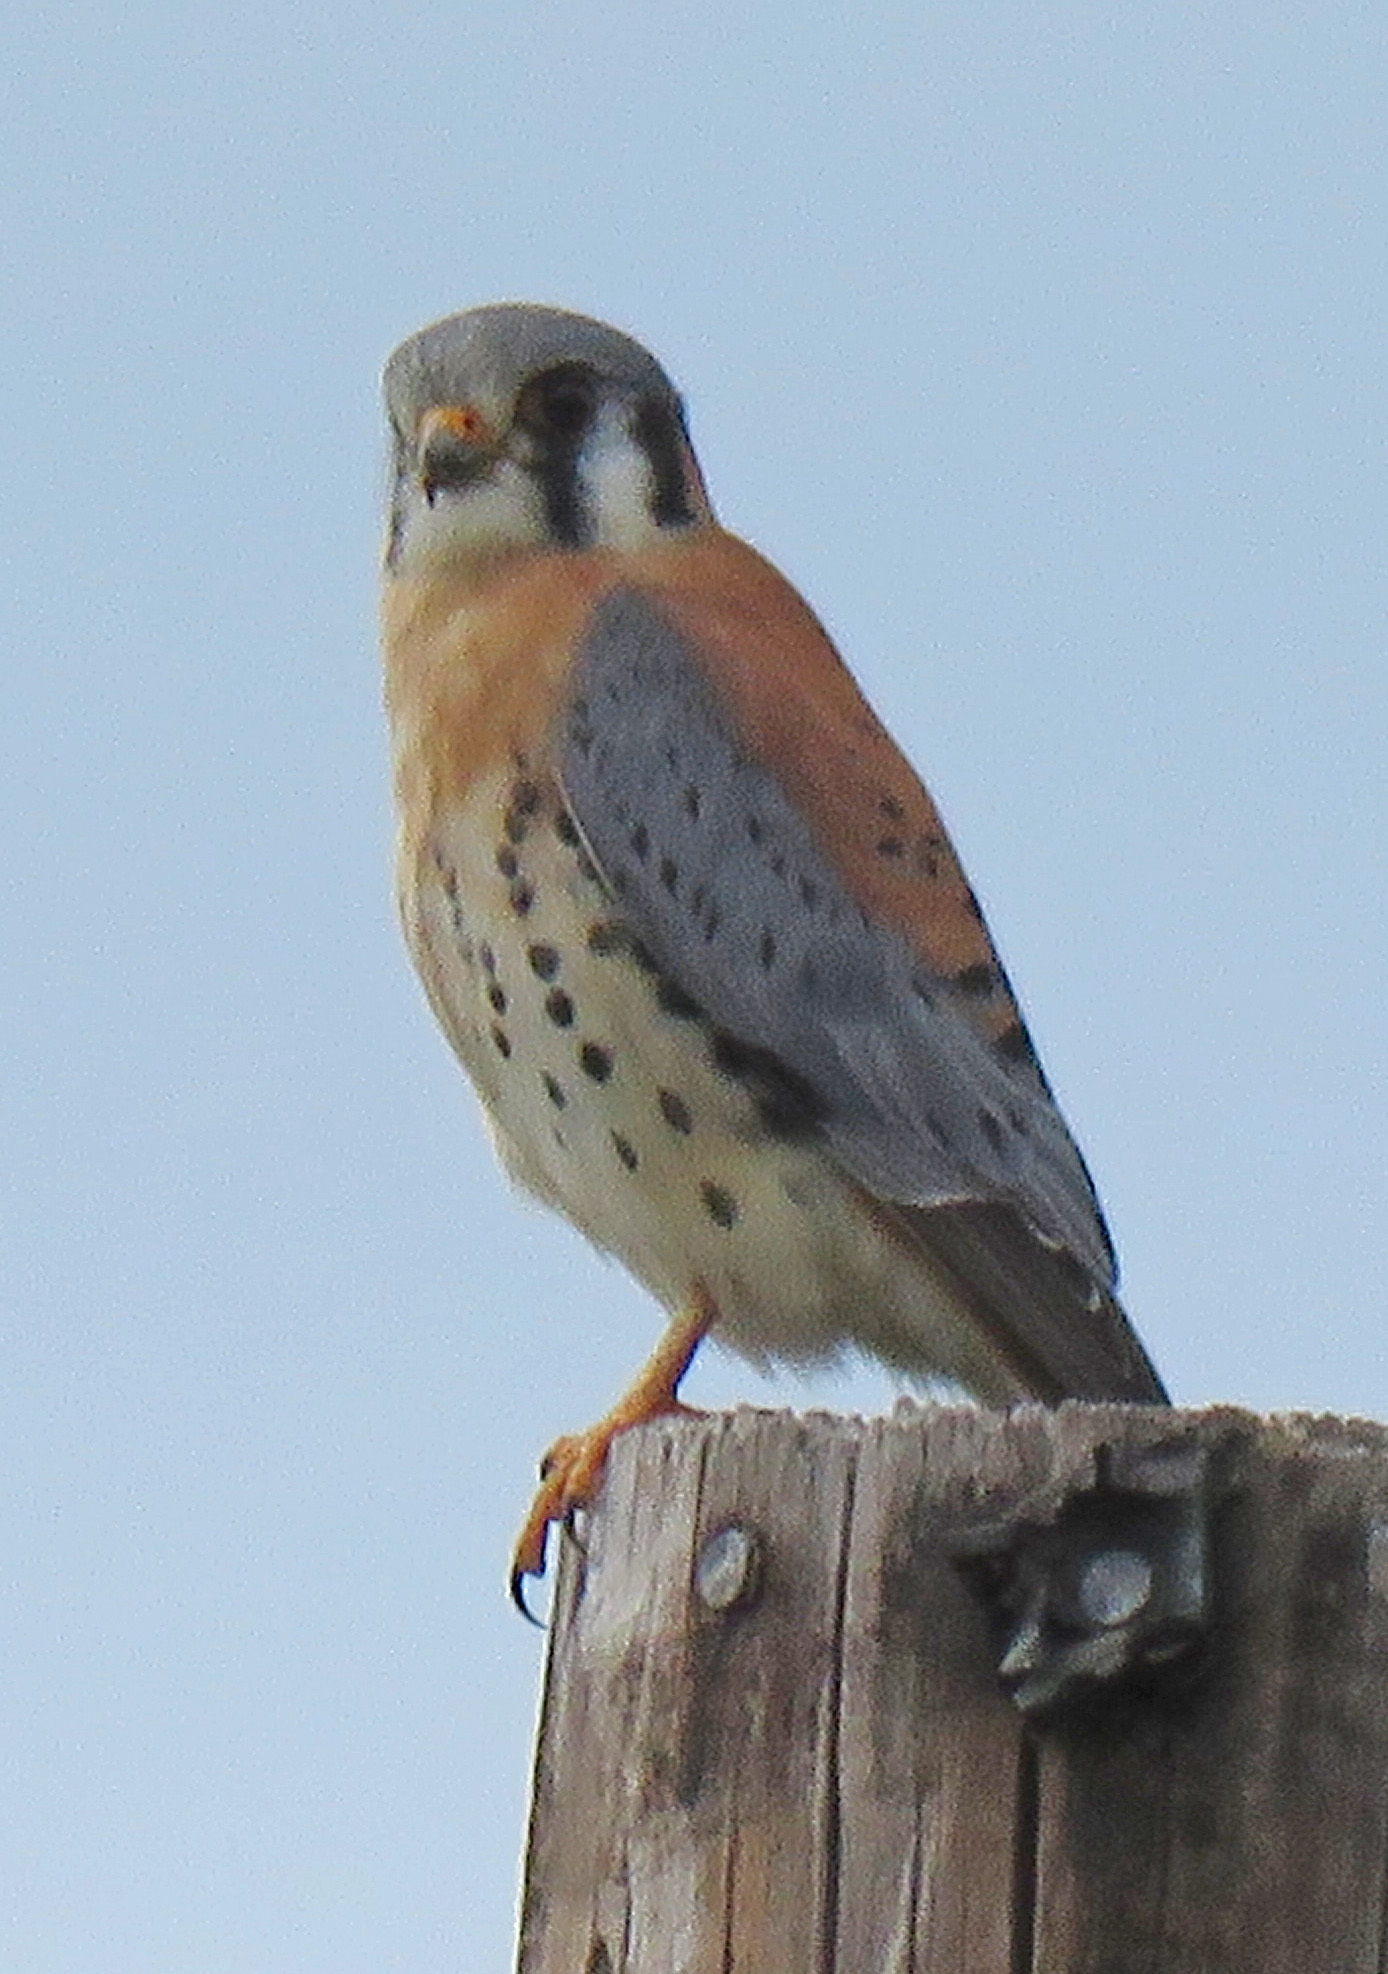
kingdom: Animalia
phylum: Chordata
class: Aves
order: Falconiformes
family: Falconidae
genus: Falco
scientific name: Falco sparverius
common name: American kestrel
